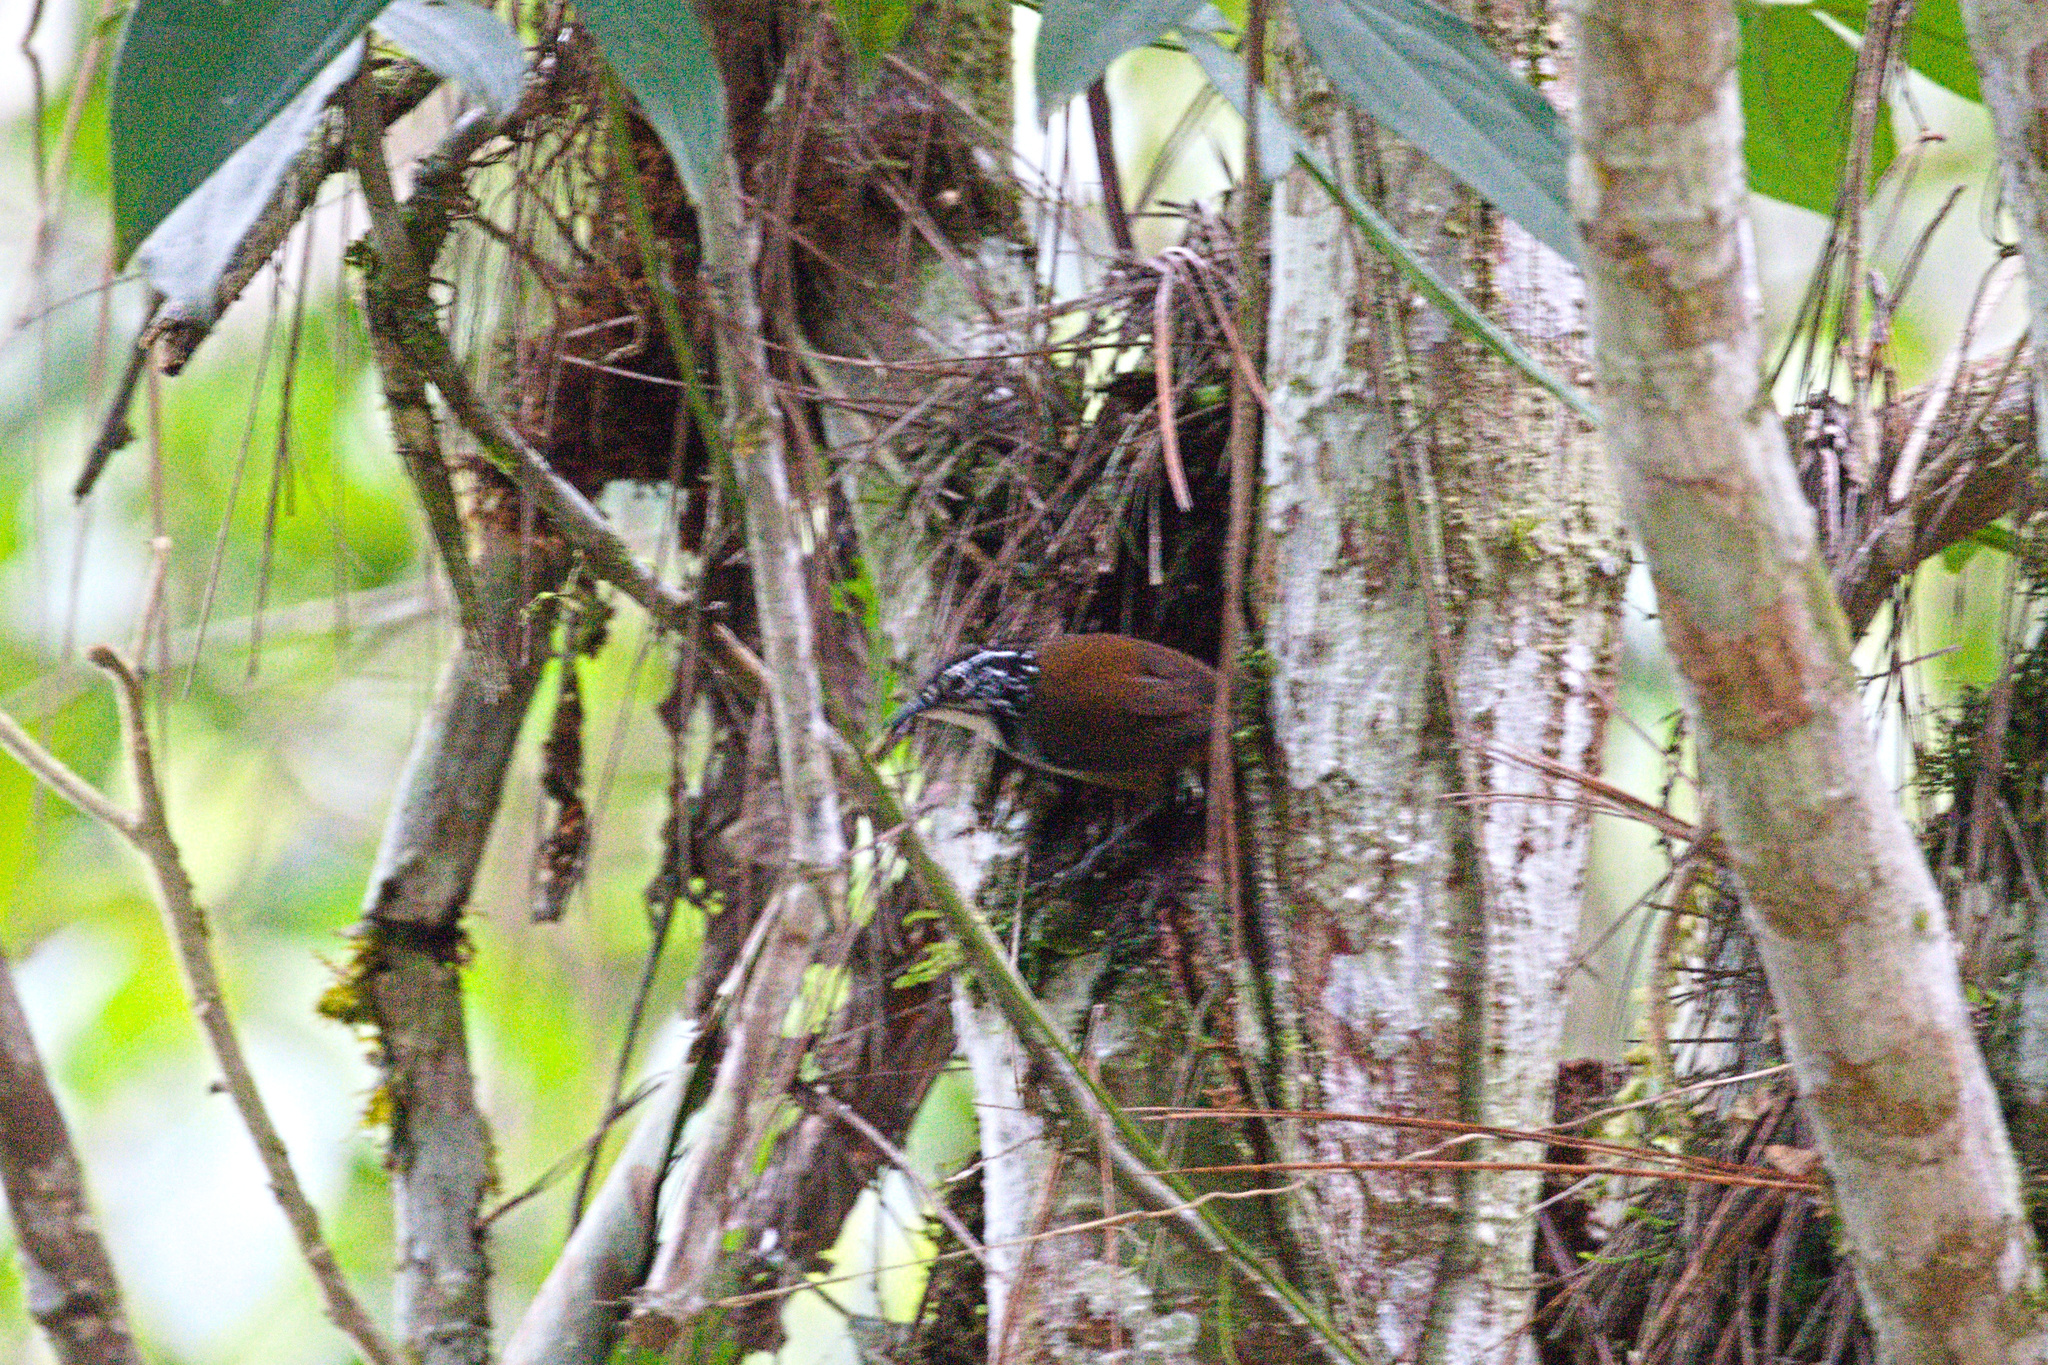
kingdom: Animalia
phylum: Chordata
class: Aves
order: Passeriformes
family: Troglodytidae
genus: Henicorhina
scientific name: Henicorhina leucosticta
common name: White-breasted wood-wren
